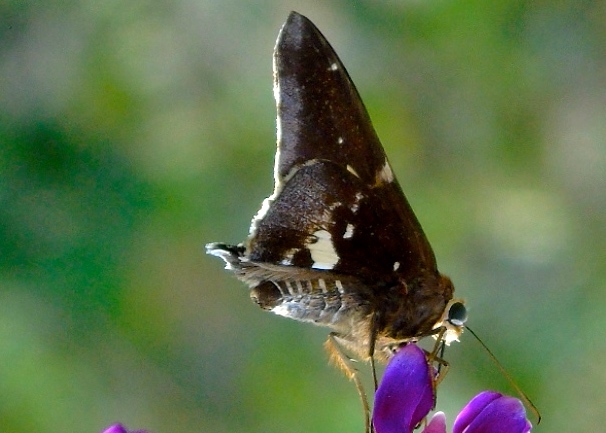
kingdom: Animalia
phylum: Arthropoda
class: Insecta
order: Lepidoptera
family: Hesperiidae
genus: Epargyreus
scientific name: Epargyreus
